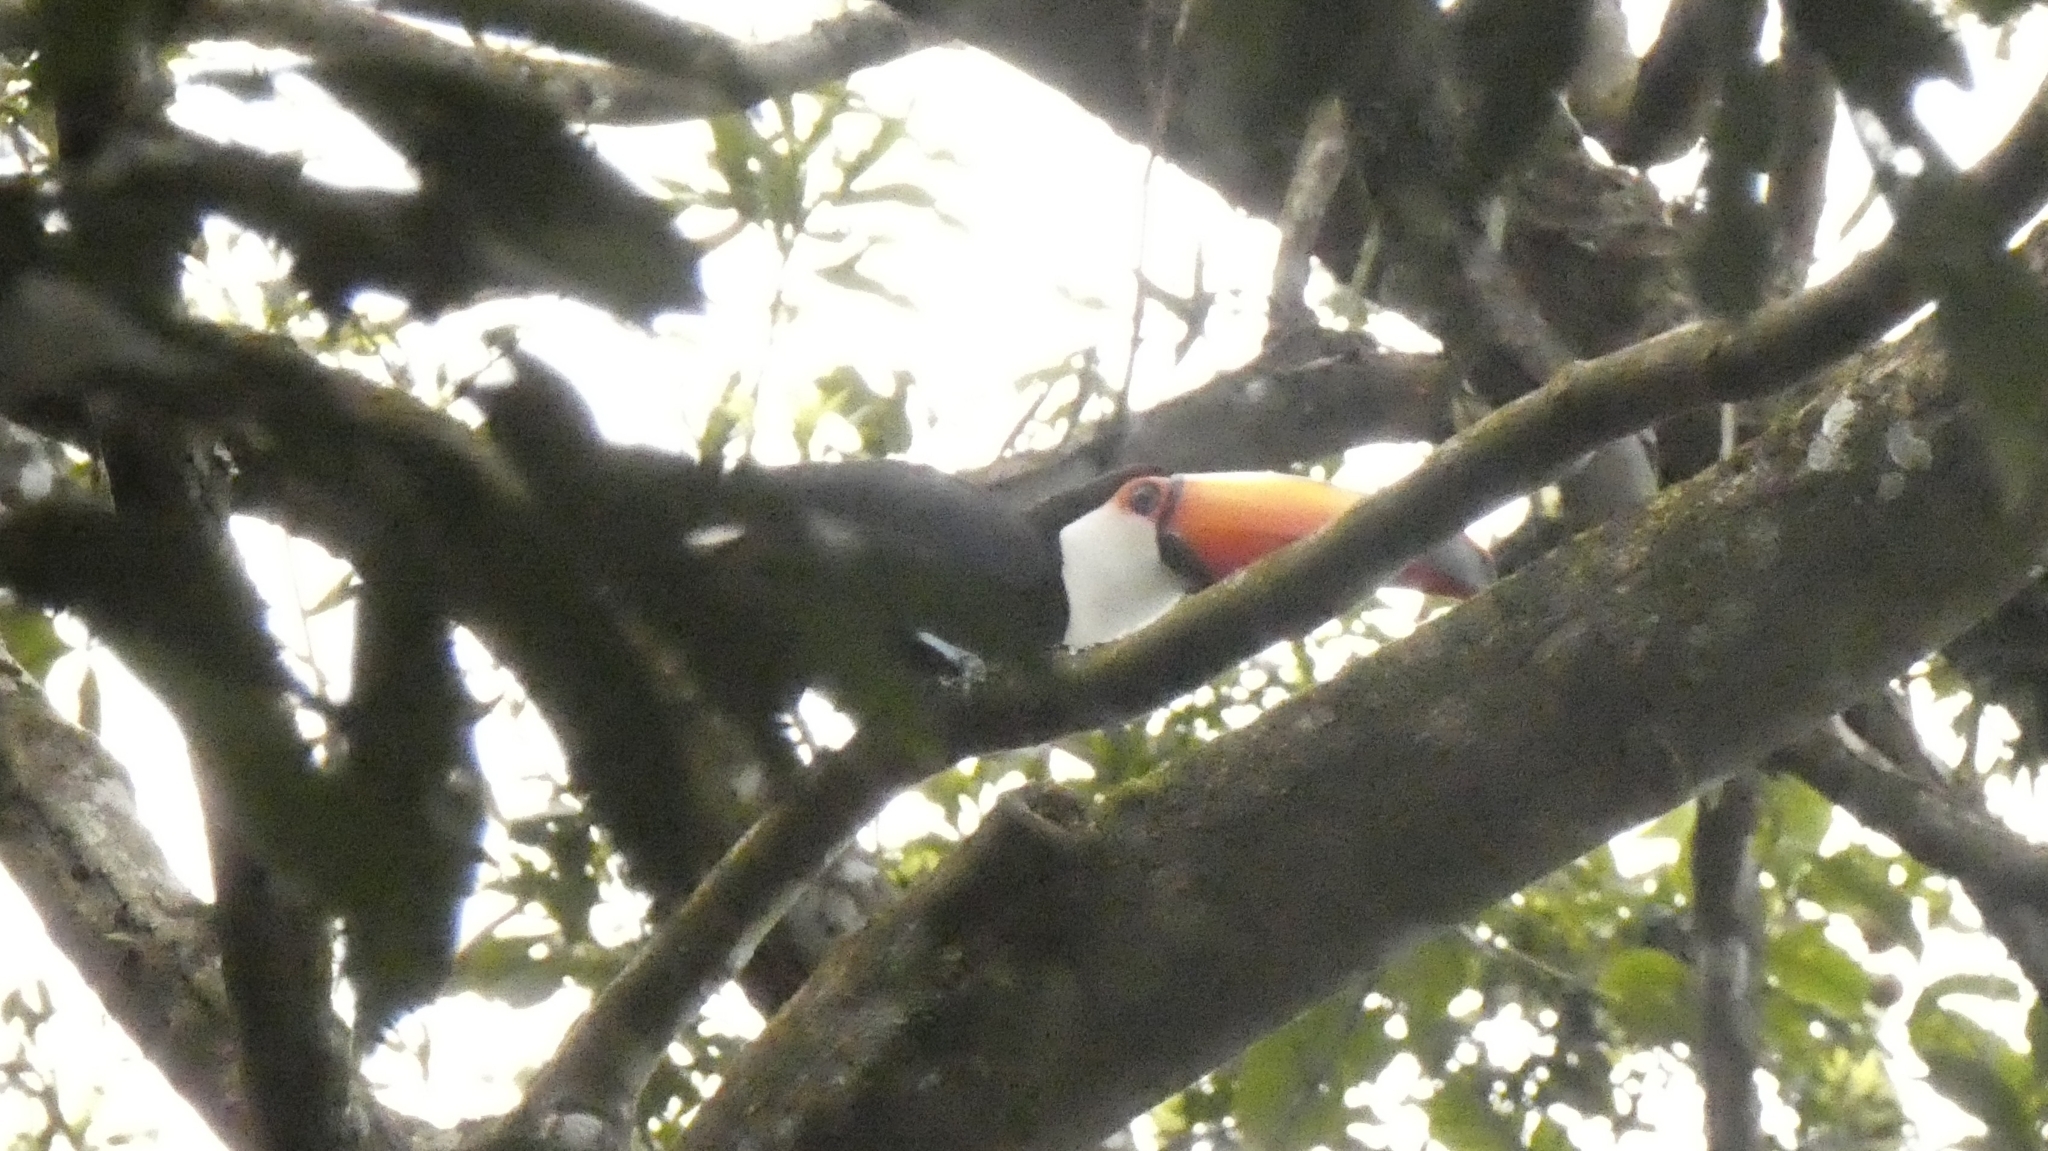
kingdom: Animalia
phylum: Chordata
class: Aves
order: Piciformes
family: Ramphastidae
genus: Ramphastos
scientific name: Ramphastos toco
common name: Toco toucan
